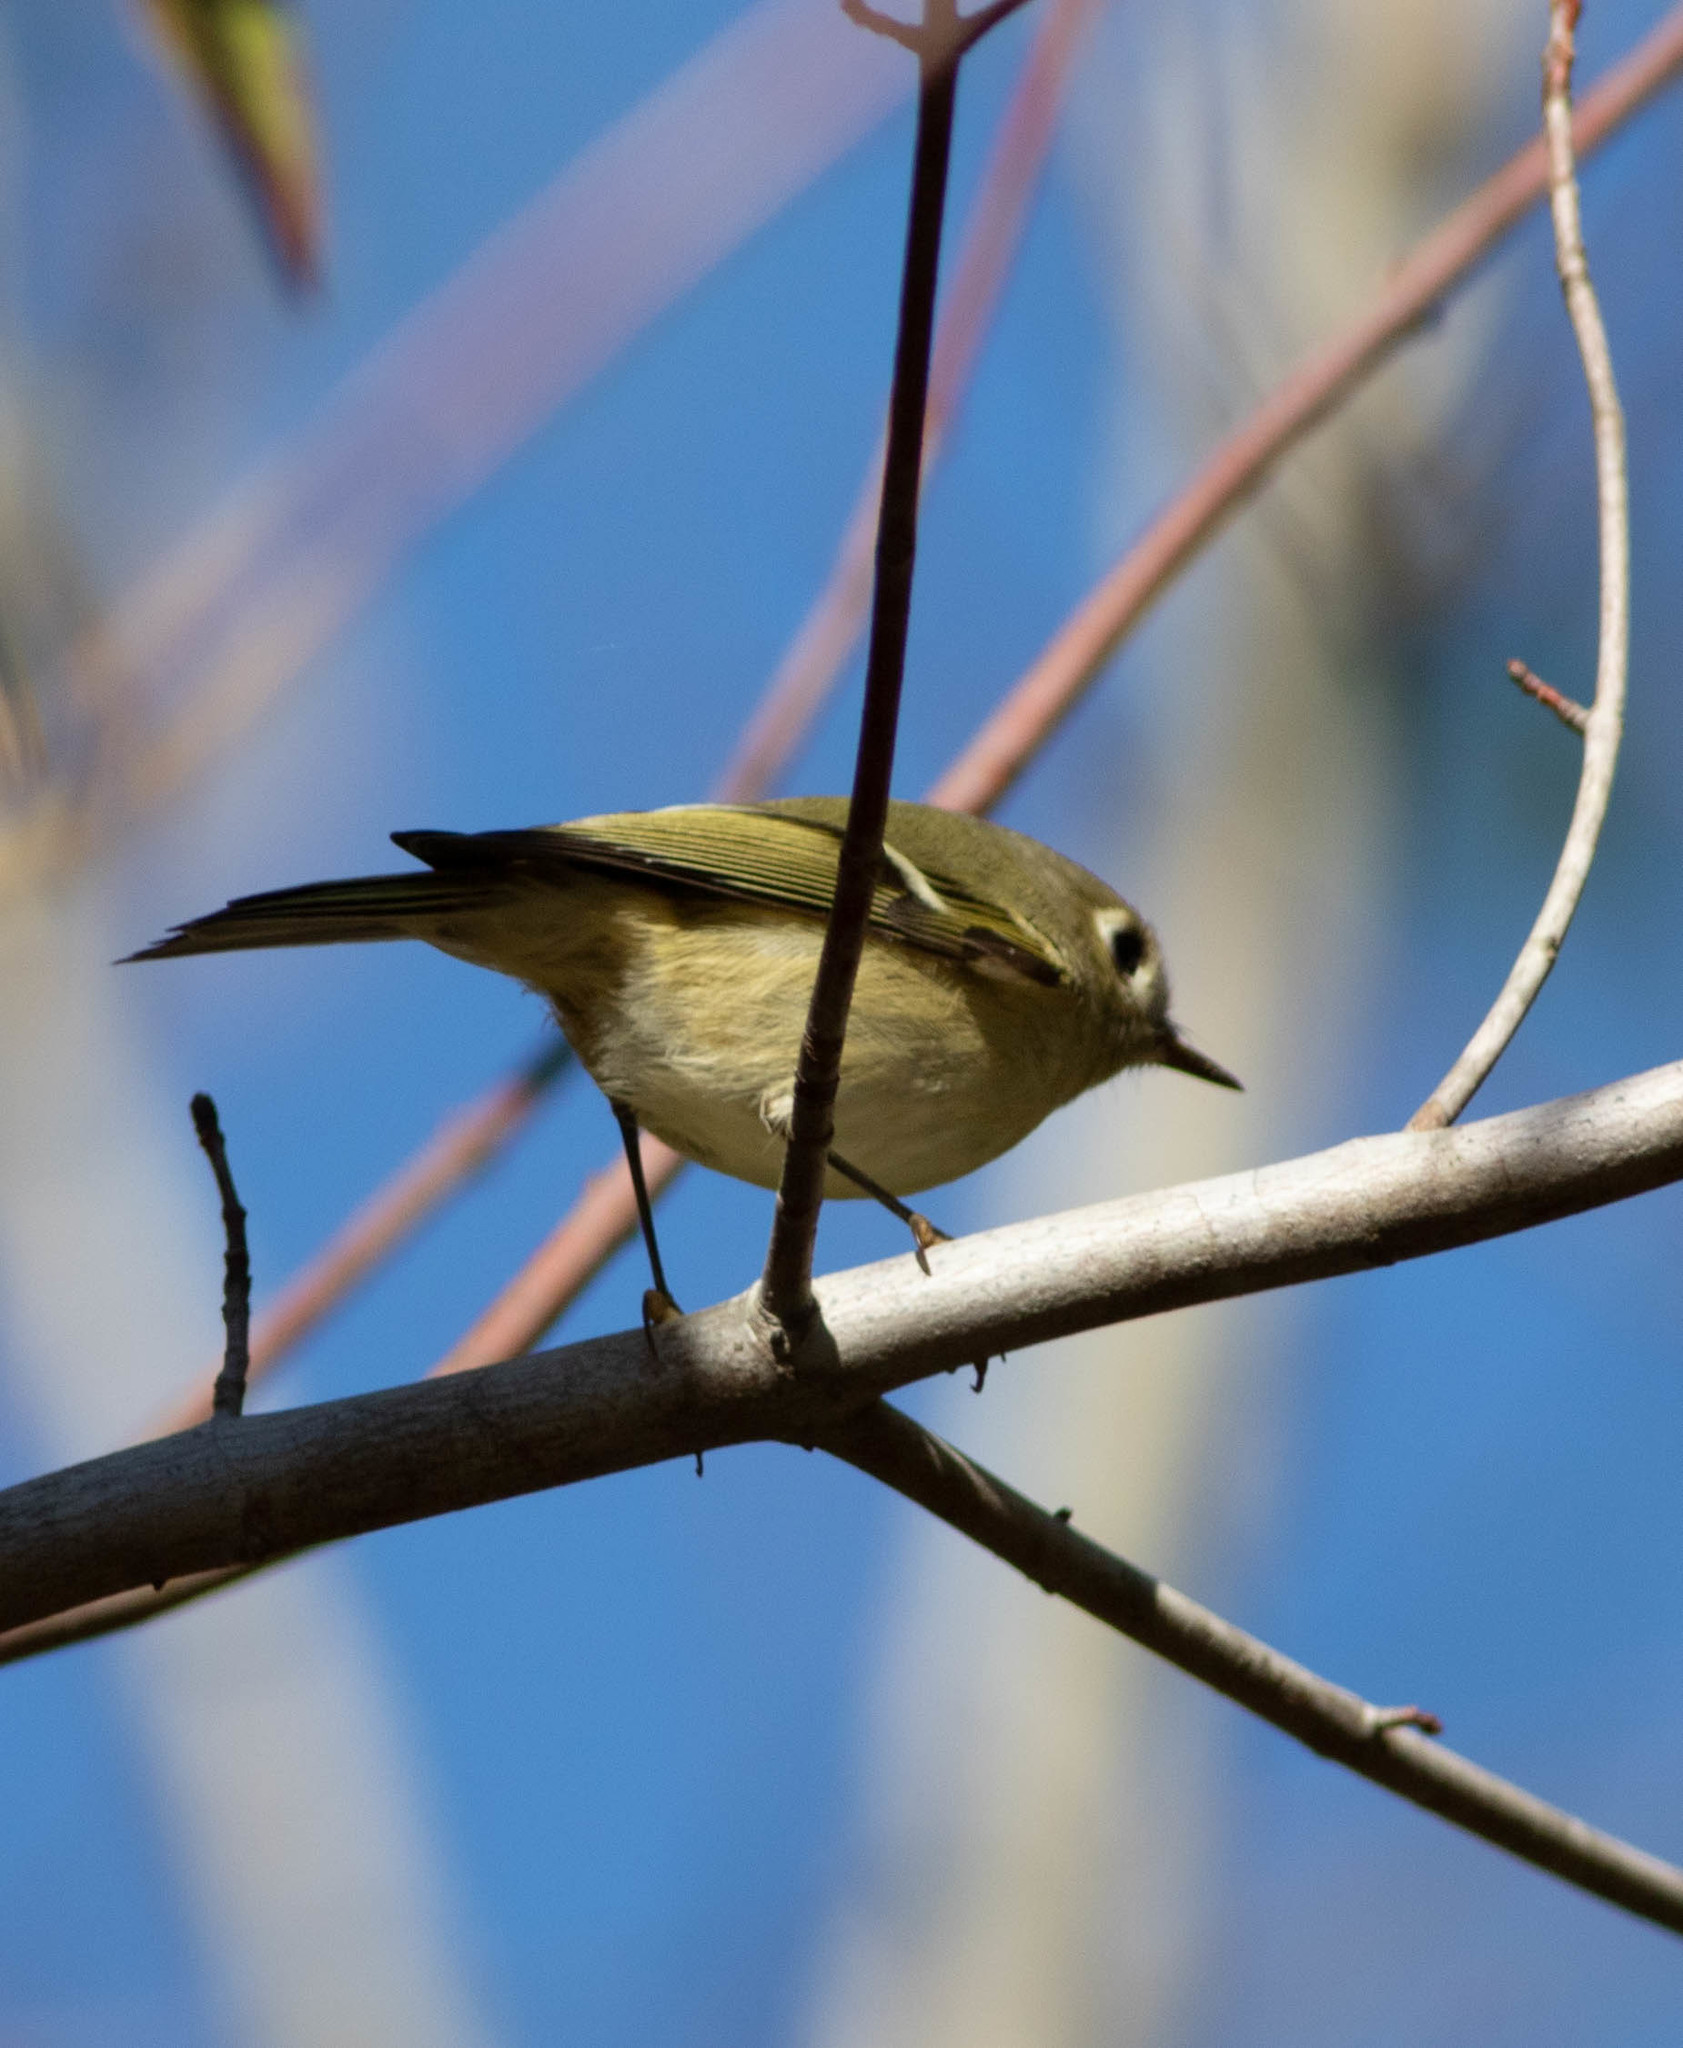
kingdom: Animalia
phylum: Chordata
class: Aves
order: Passeriformes
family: Regulidae
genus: Regulus
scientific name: Regulus calendula
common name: Ruby-crowned kinglet
